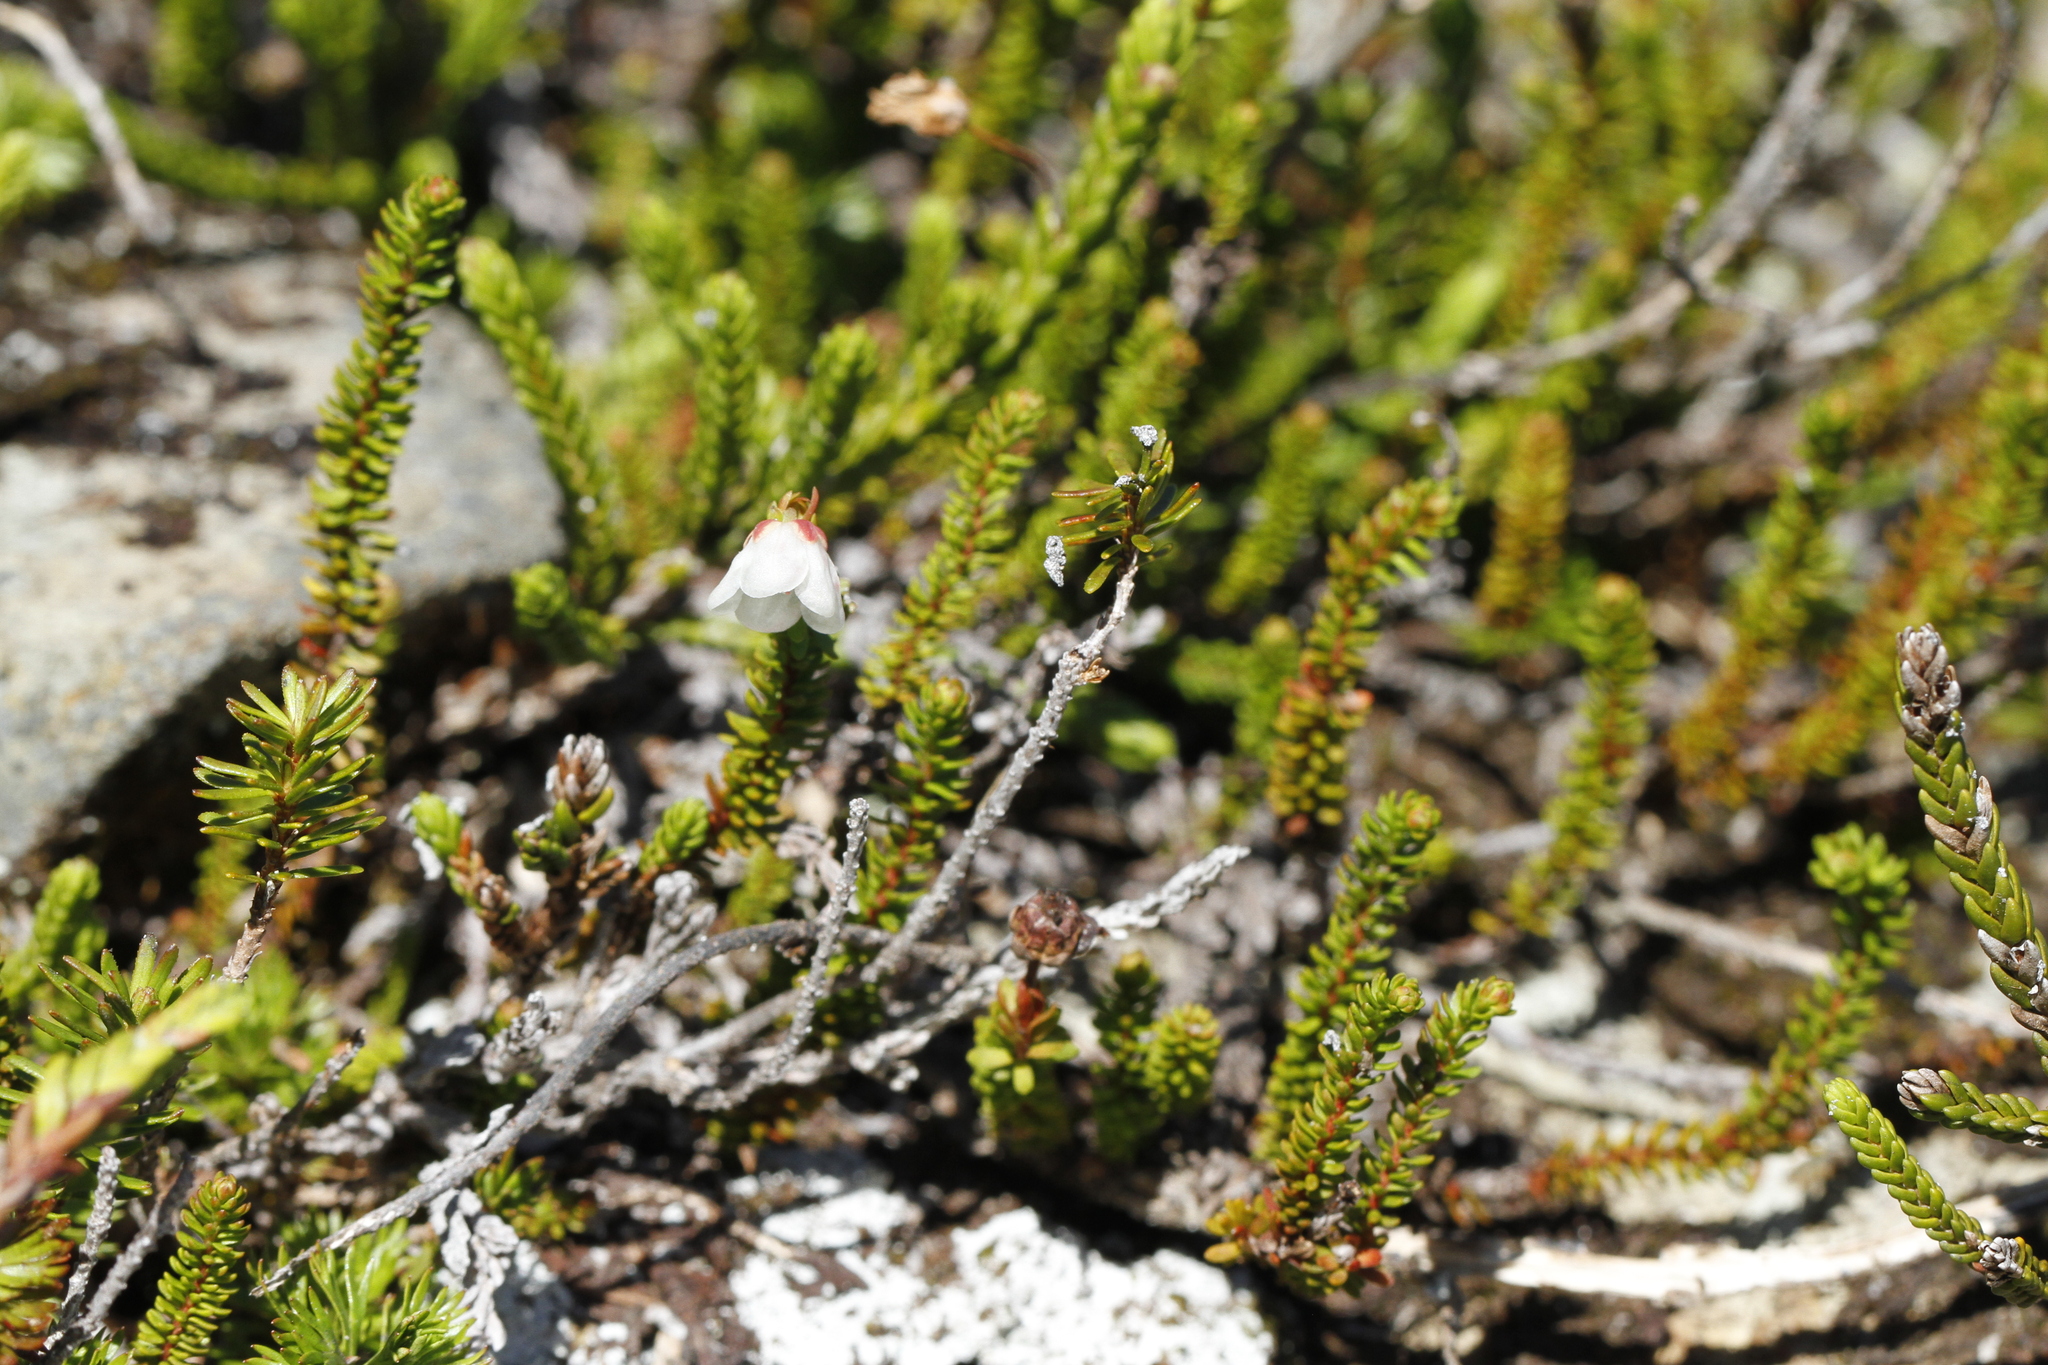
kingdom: Plantae
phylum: Tracheophyta
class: Magnoliopsida
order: Ericales
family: Ericaceae
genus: Harrimanella
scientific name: Harrimanella stelleriana
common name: Alaska bell heather
